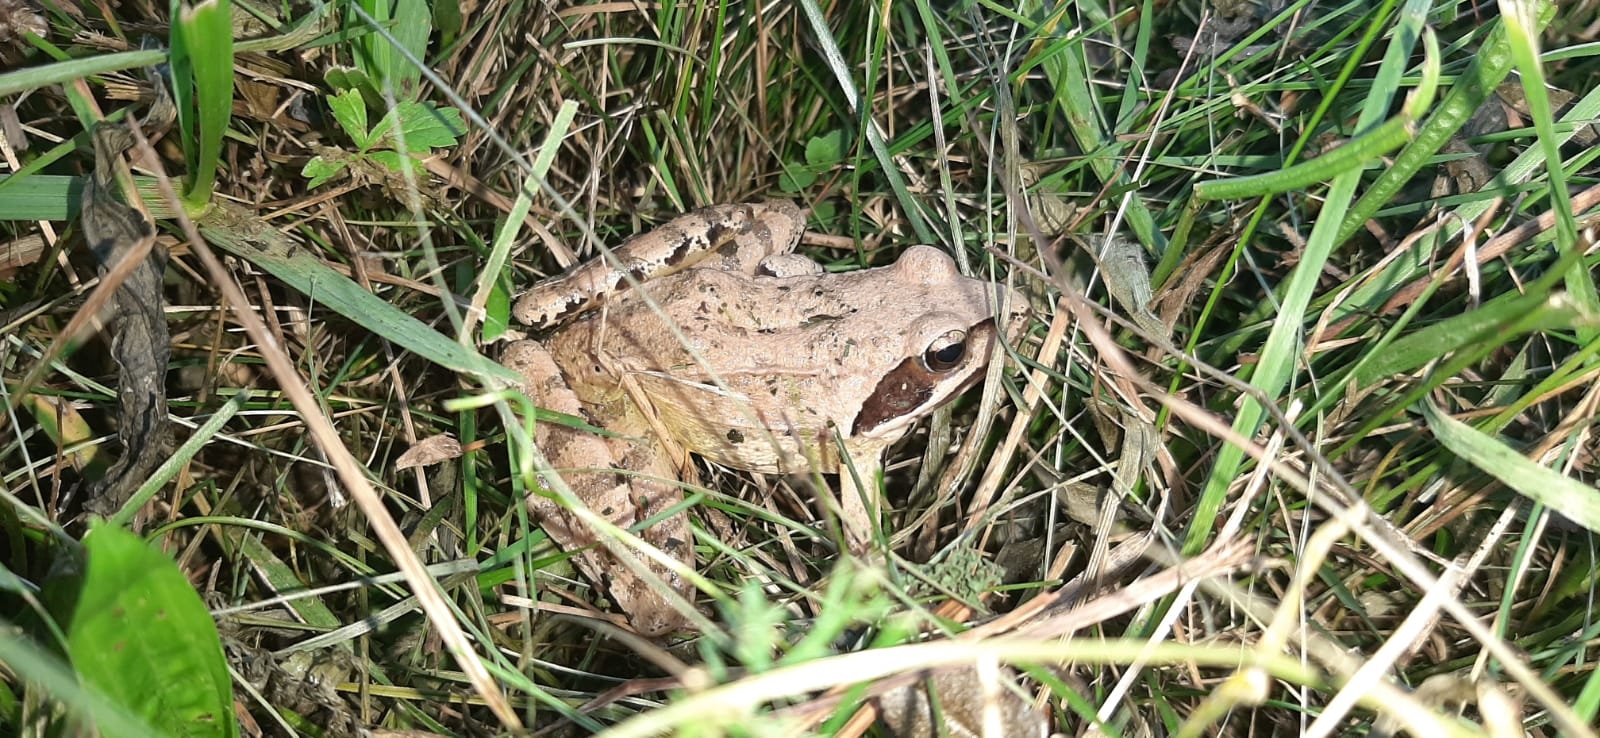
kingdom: Animalia
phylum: Chordata
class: Amphibia
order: Anura
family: Ranidae
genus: Rana
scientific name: Rana dalmatina
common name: Agile frog
